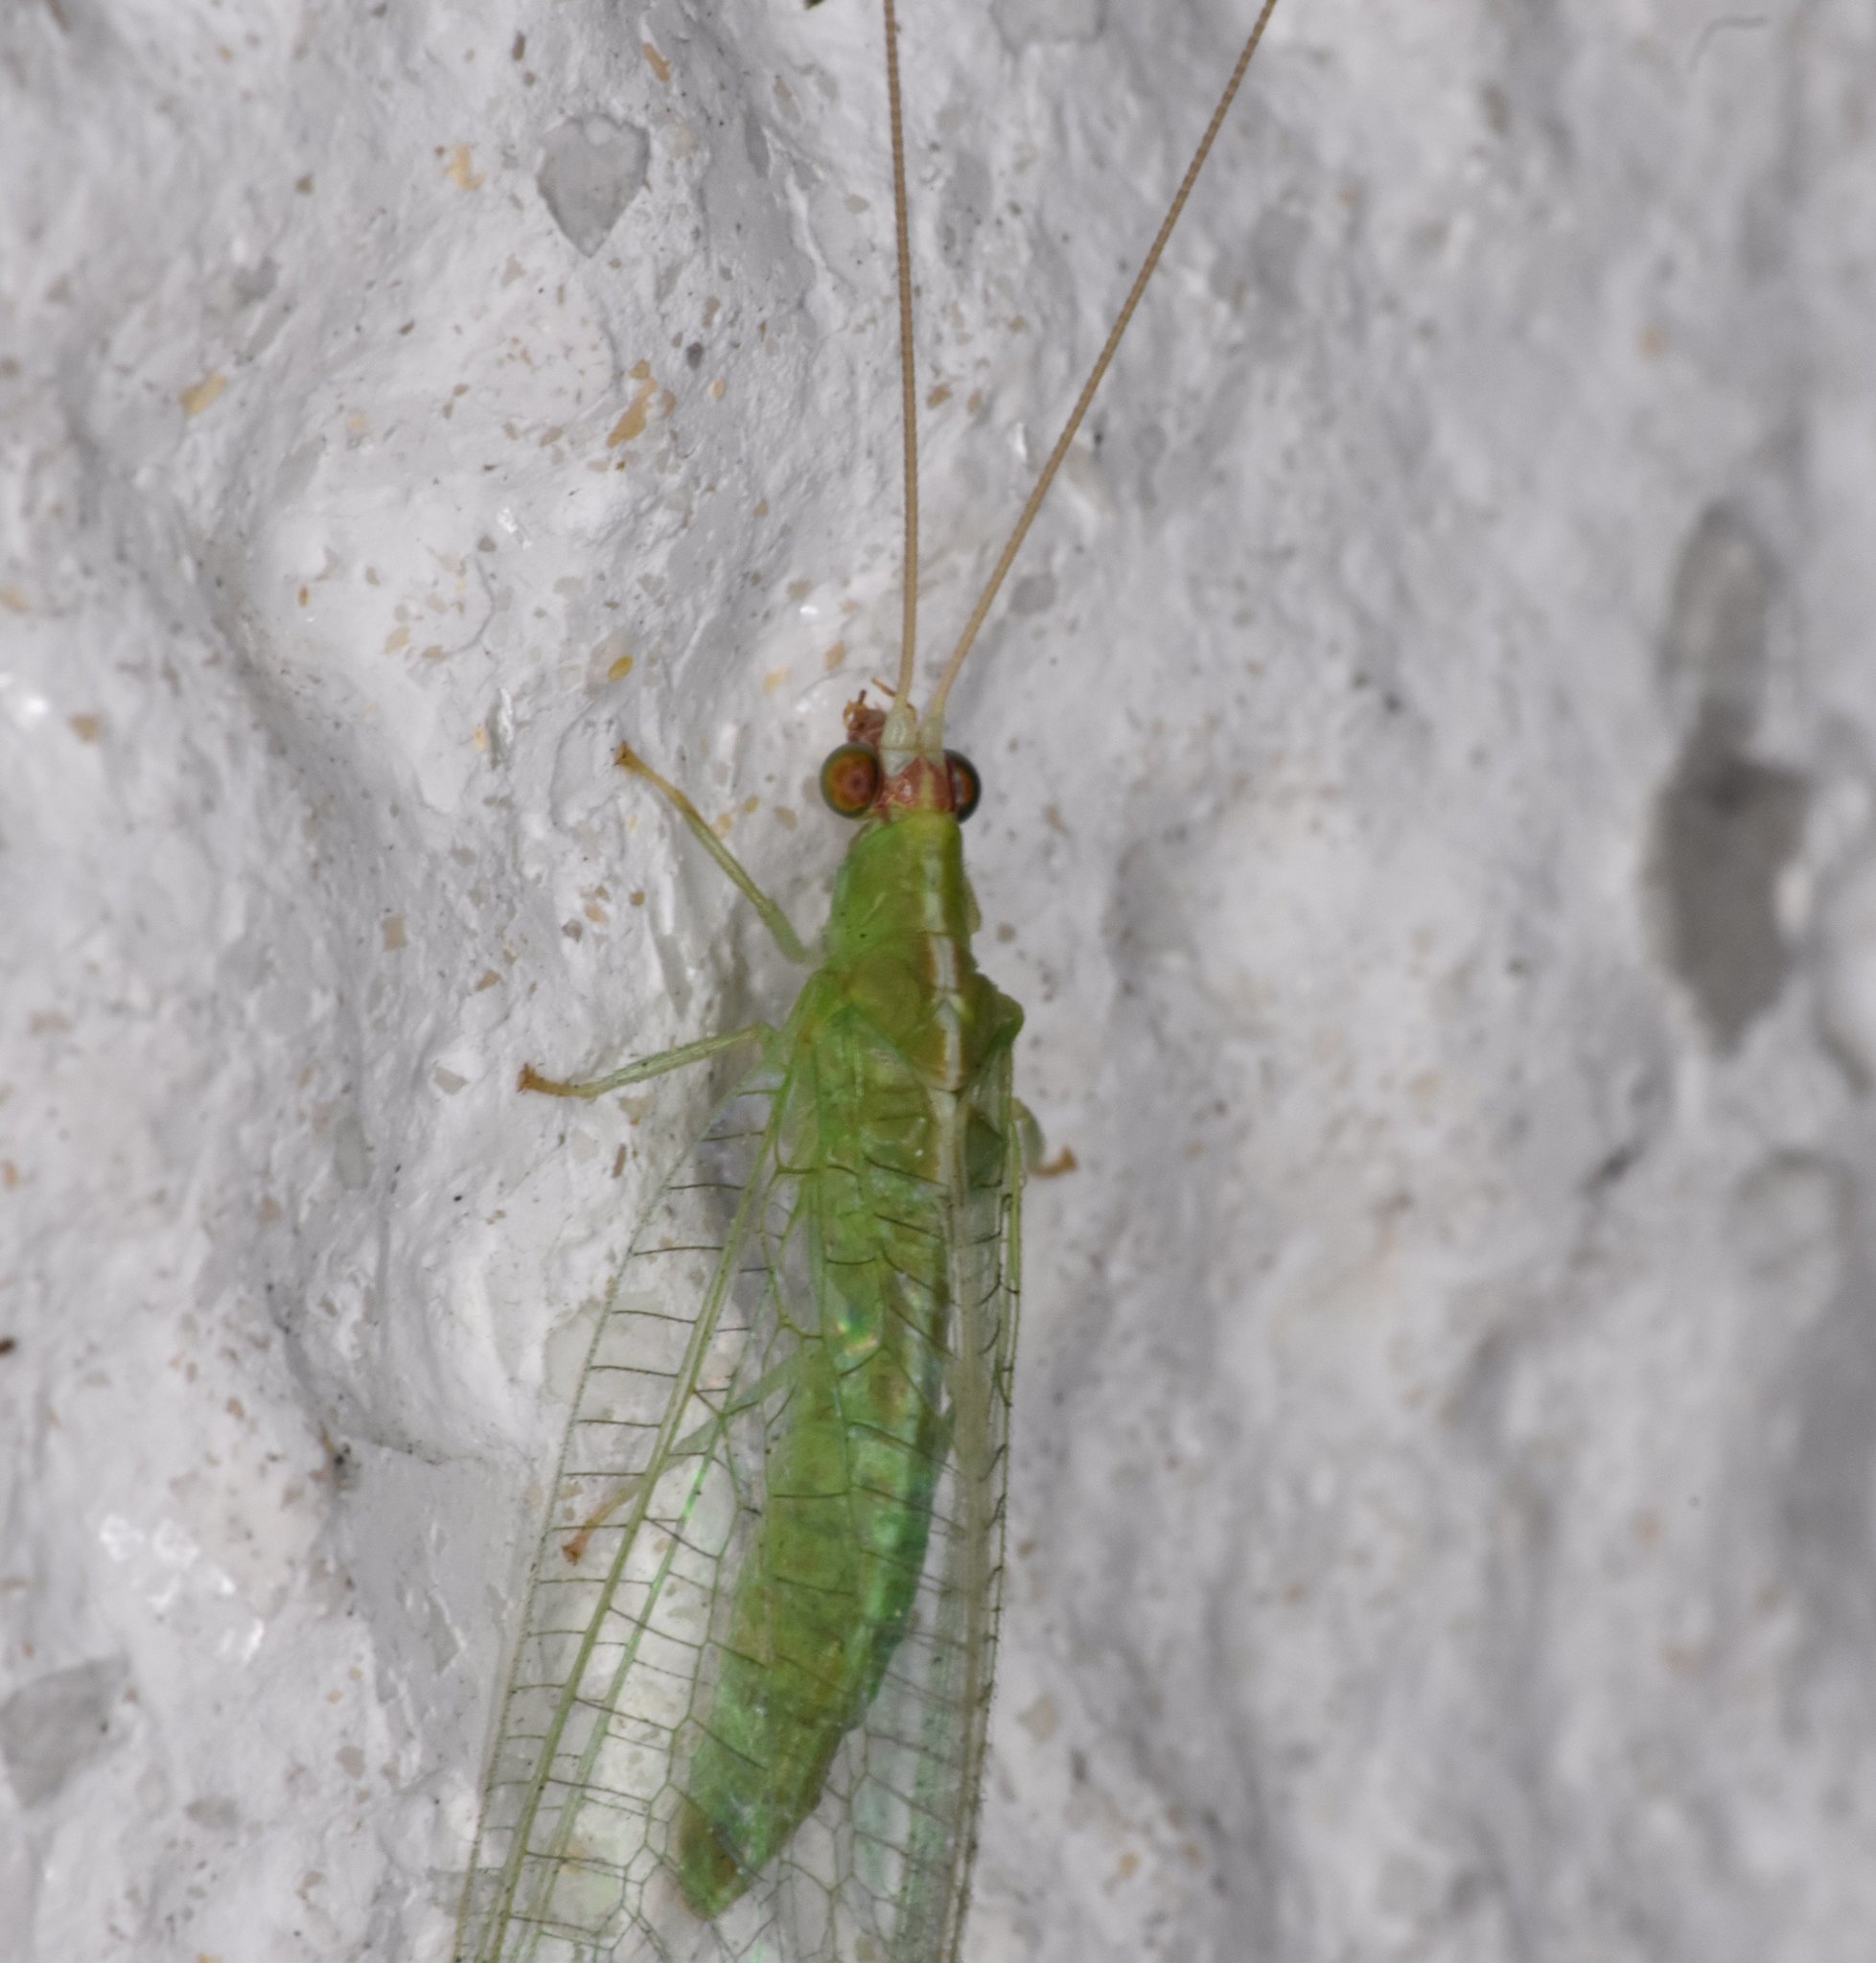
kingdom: Animalia
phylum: Arthropoda
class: Insecta
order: Neuroptera
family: Chrysopidae
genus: Chrysopodes
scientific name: Chrysopodes collaris
